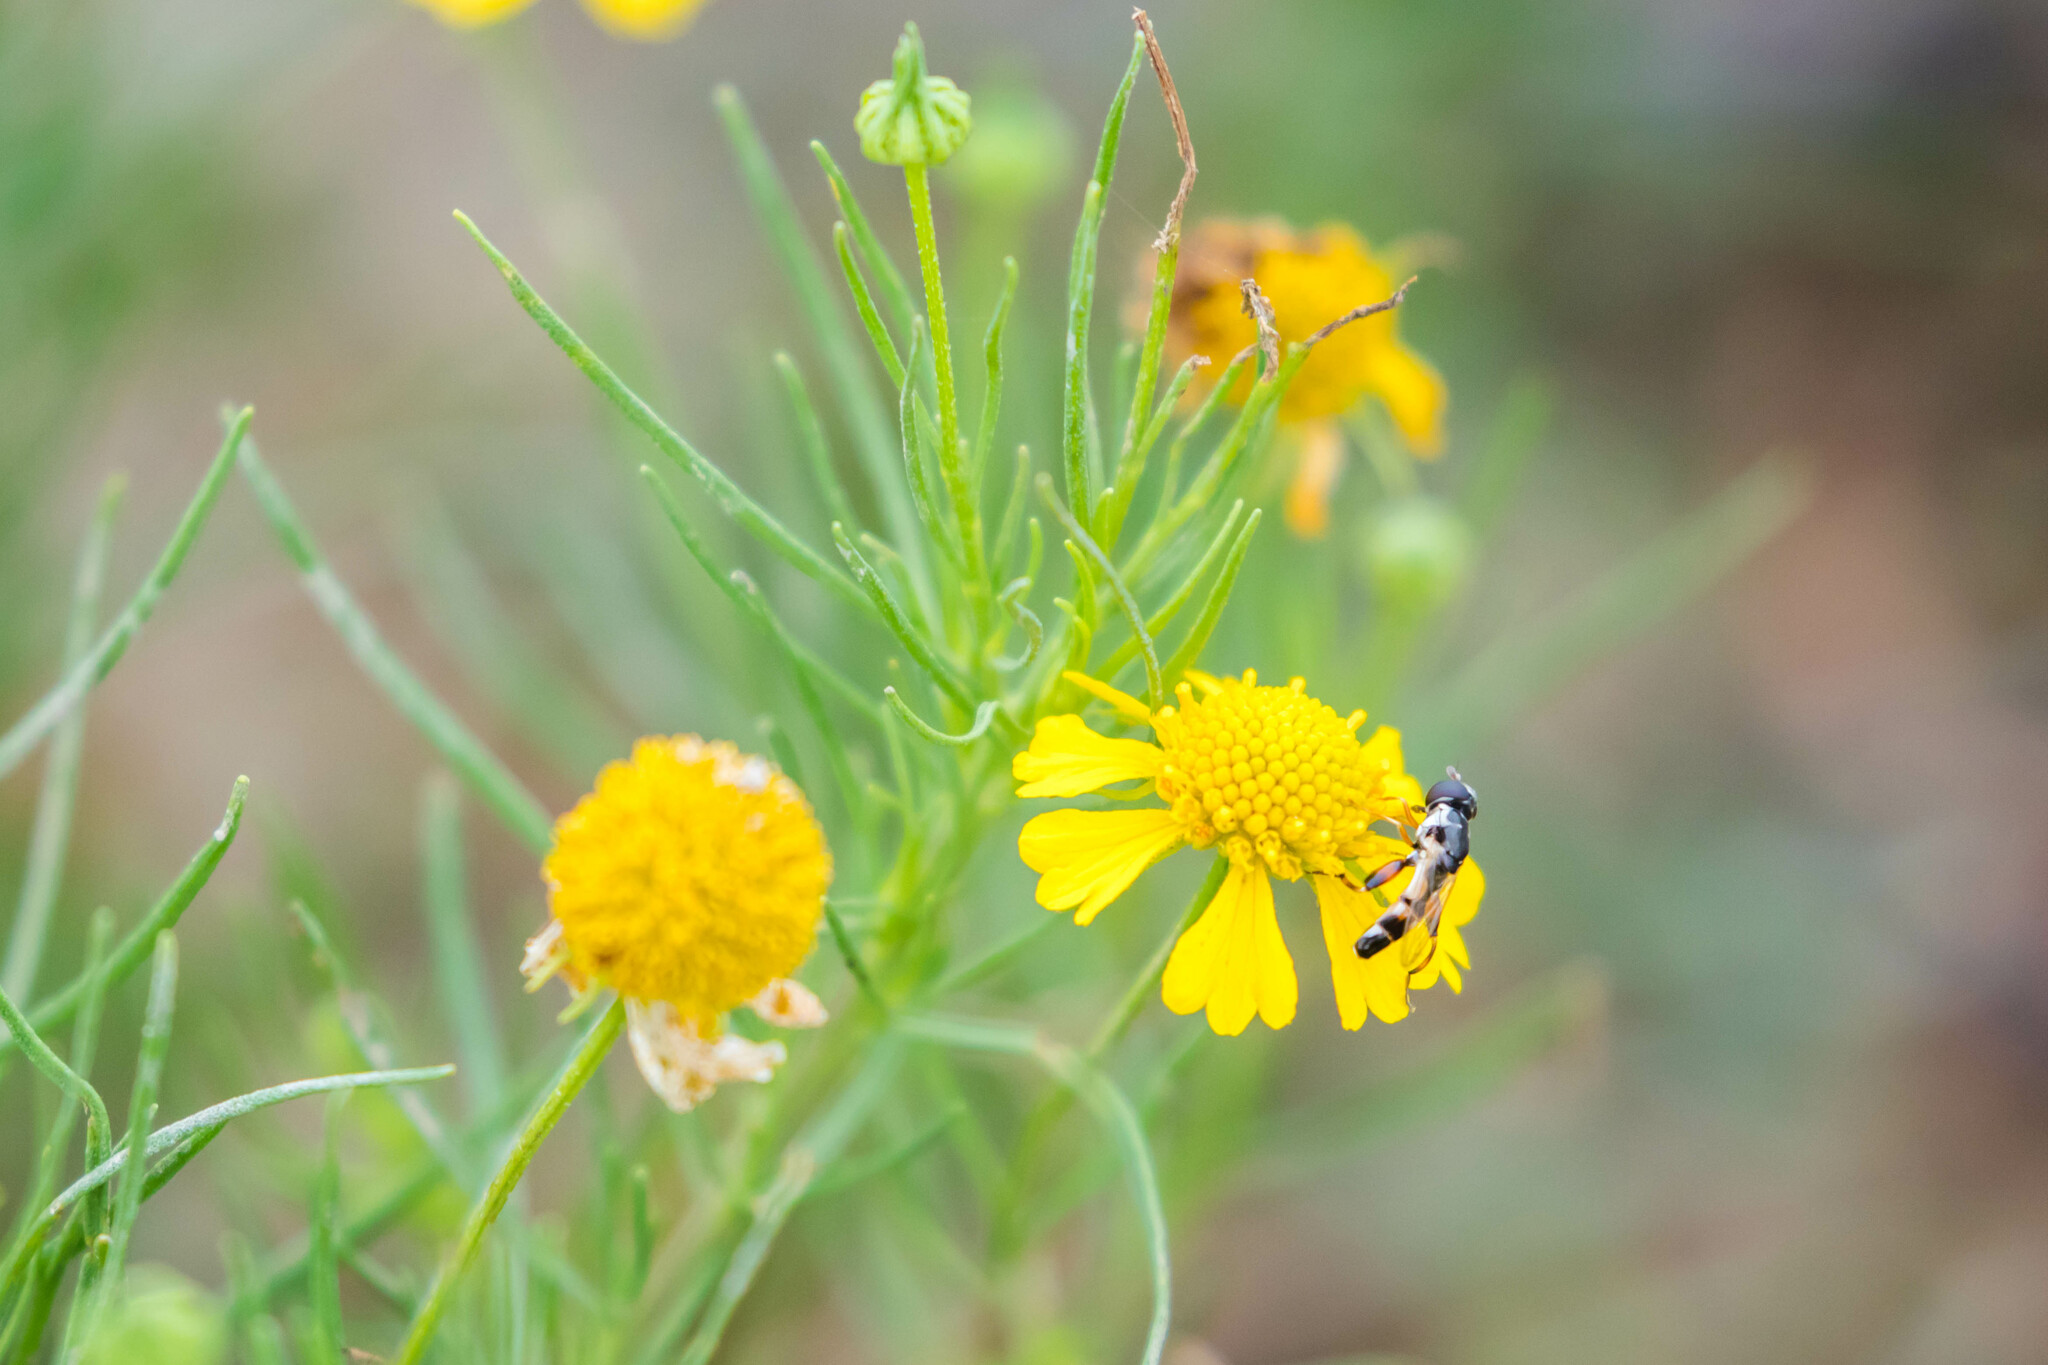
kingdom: Animalia
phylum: Arthropoda
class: Insecta
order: Diptera
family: Syrphidae
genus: Syritta
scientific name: Syritta flaviventris
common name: Syrphid fly
